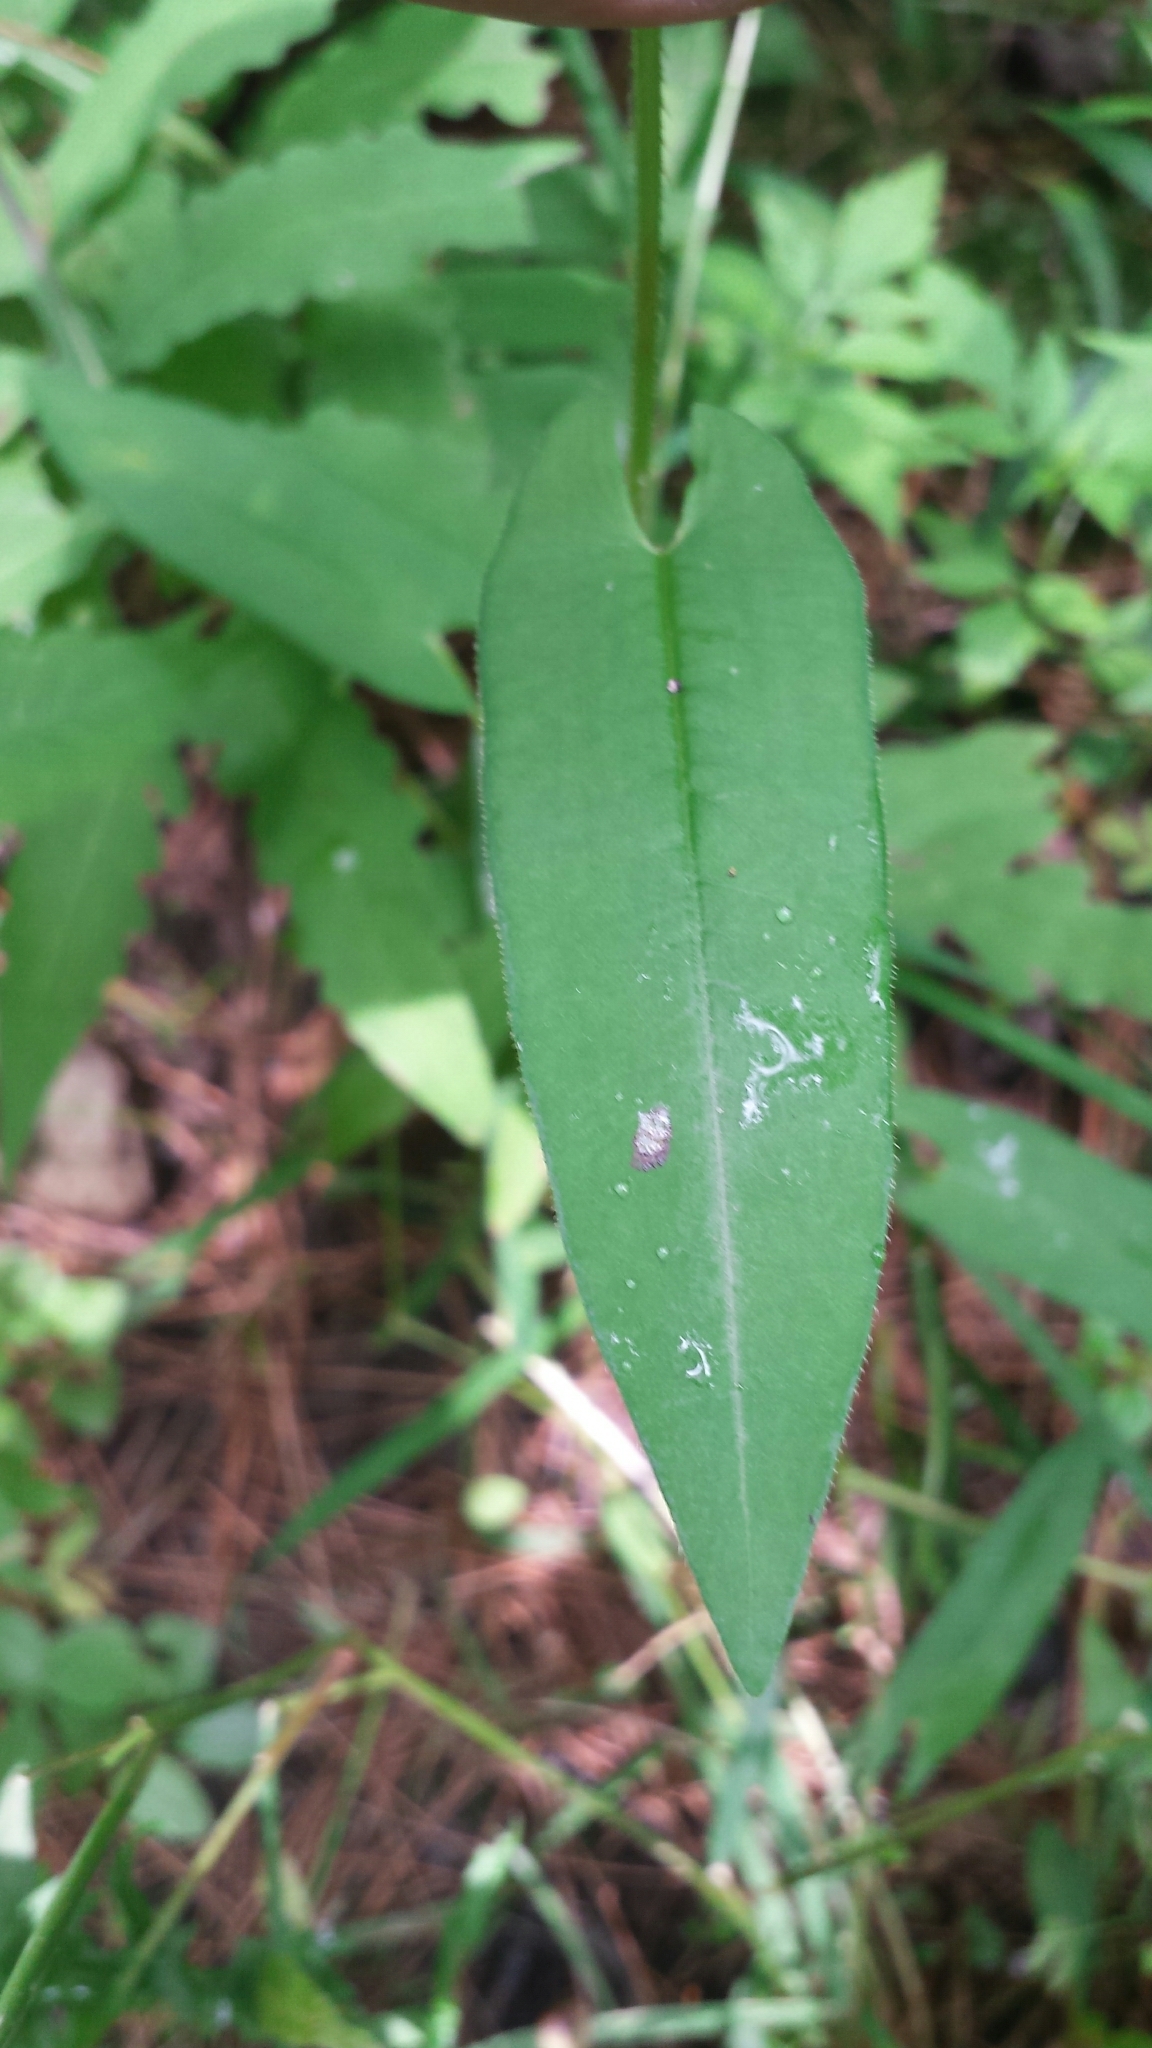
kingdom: Plantae
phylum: Tracheophyta
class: Magnoliopsida
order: Caryophyllales
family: Polygonaceae
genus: Persicaria
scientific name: Persicaria sagittata
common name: American tearthumb
